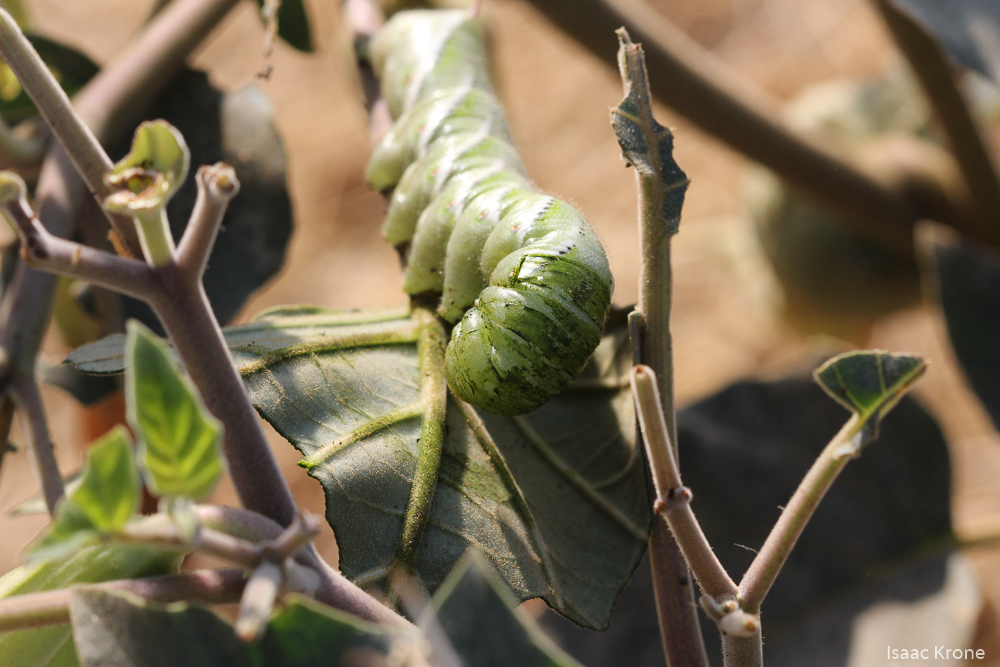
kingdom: Animalia
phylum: Arthropoda
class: Insecta
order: Lepidoptera
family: Sphingidae
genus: Manduca
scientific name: Manduca sexta
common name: Carolina sphinx
